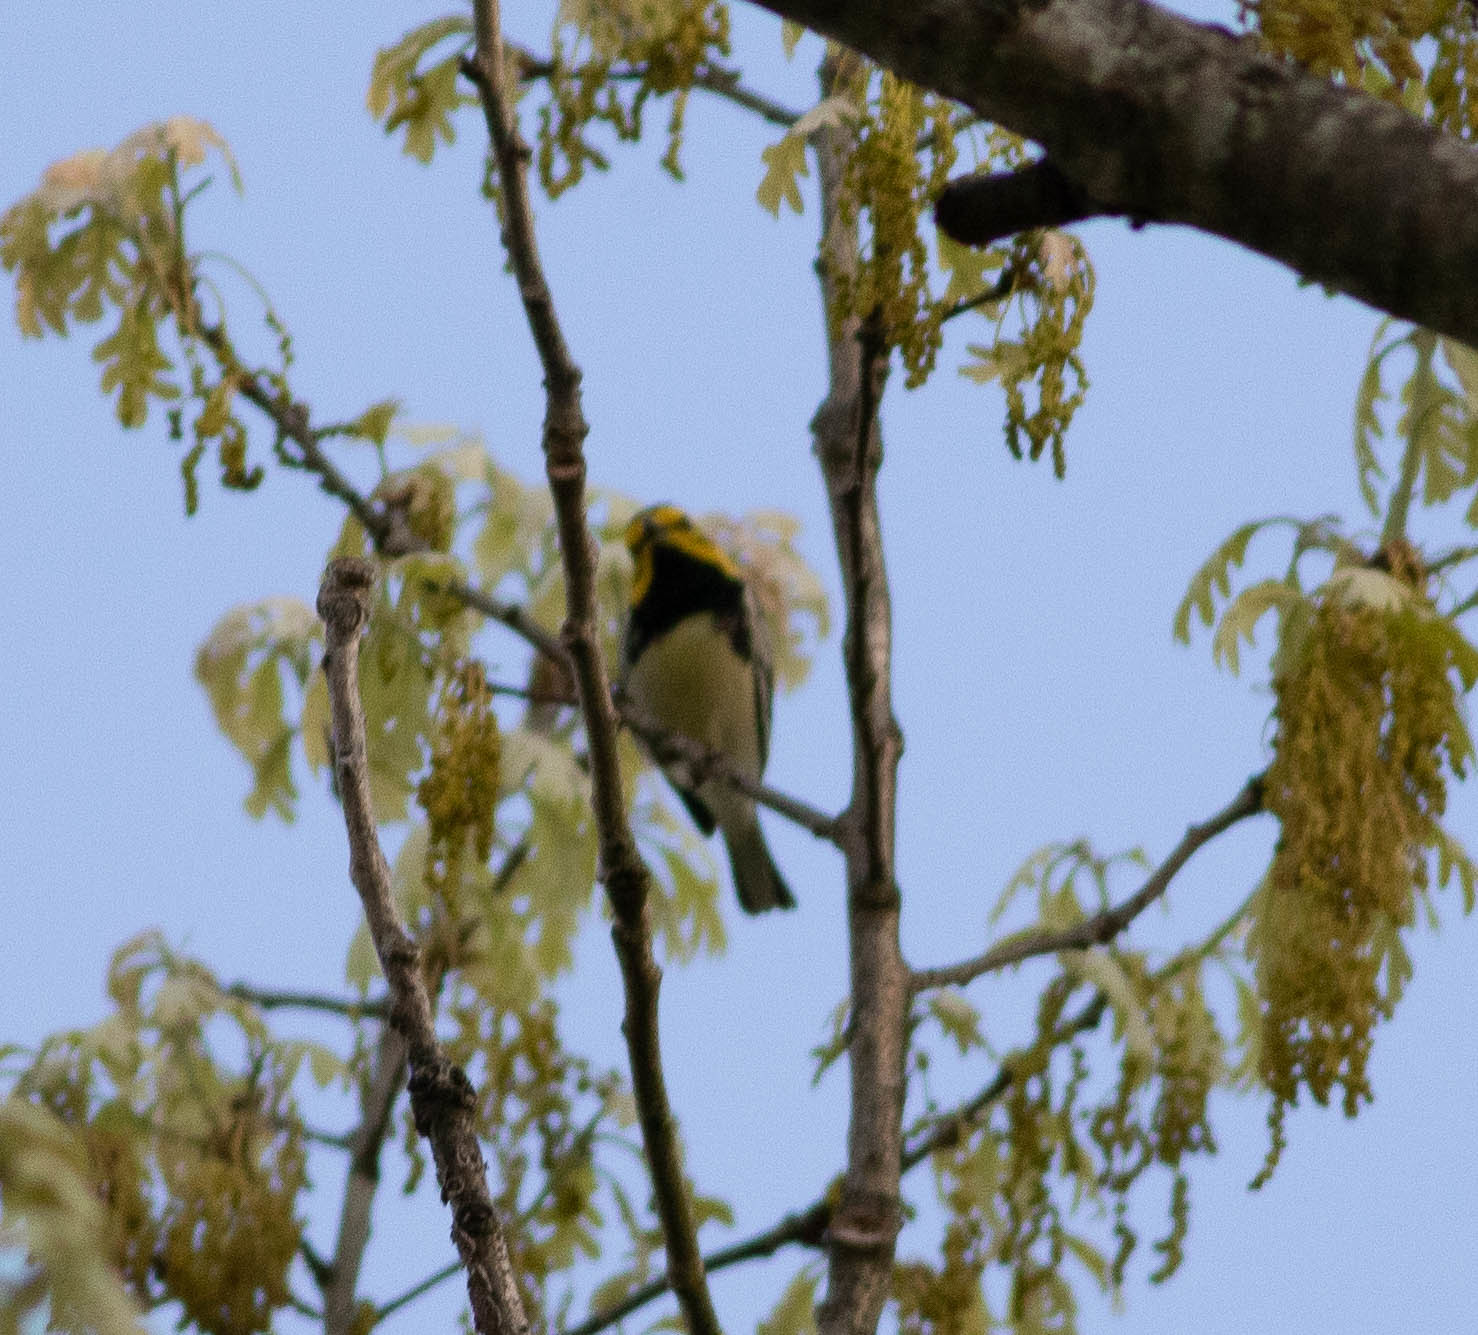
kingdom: Animalia
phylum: Chordata
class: Aves
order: Passeriformes
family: Parulidae
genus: Setophaga
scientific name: Setophaga virens
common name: Black-throated green warbler
